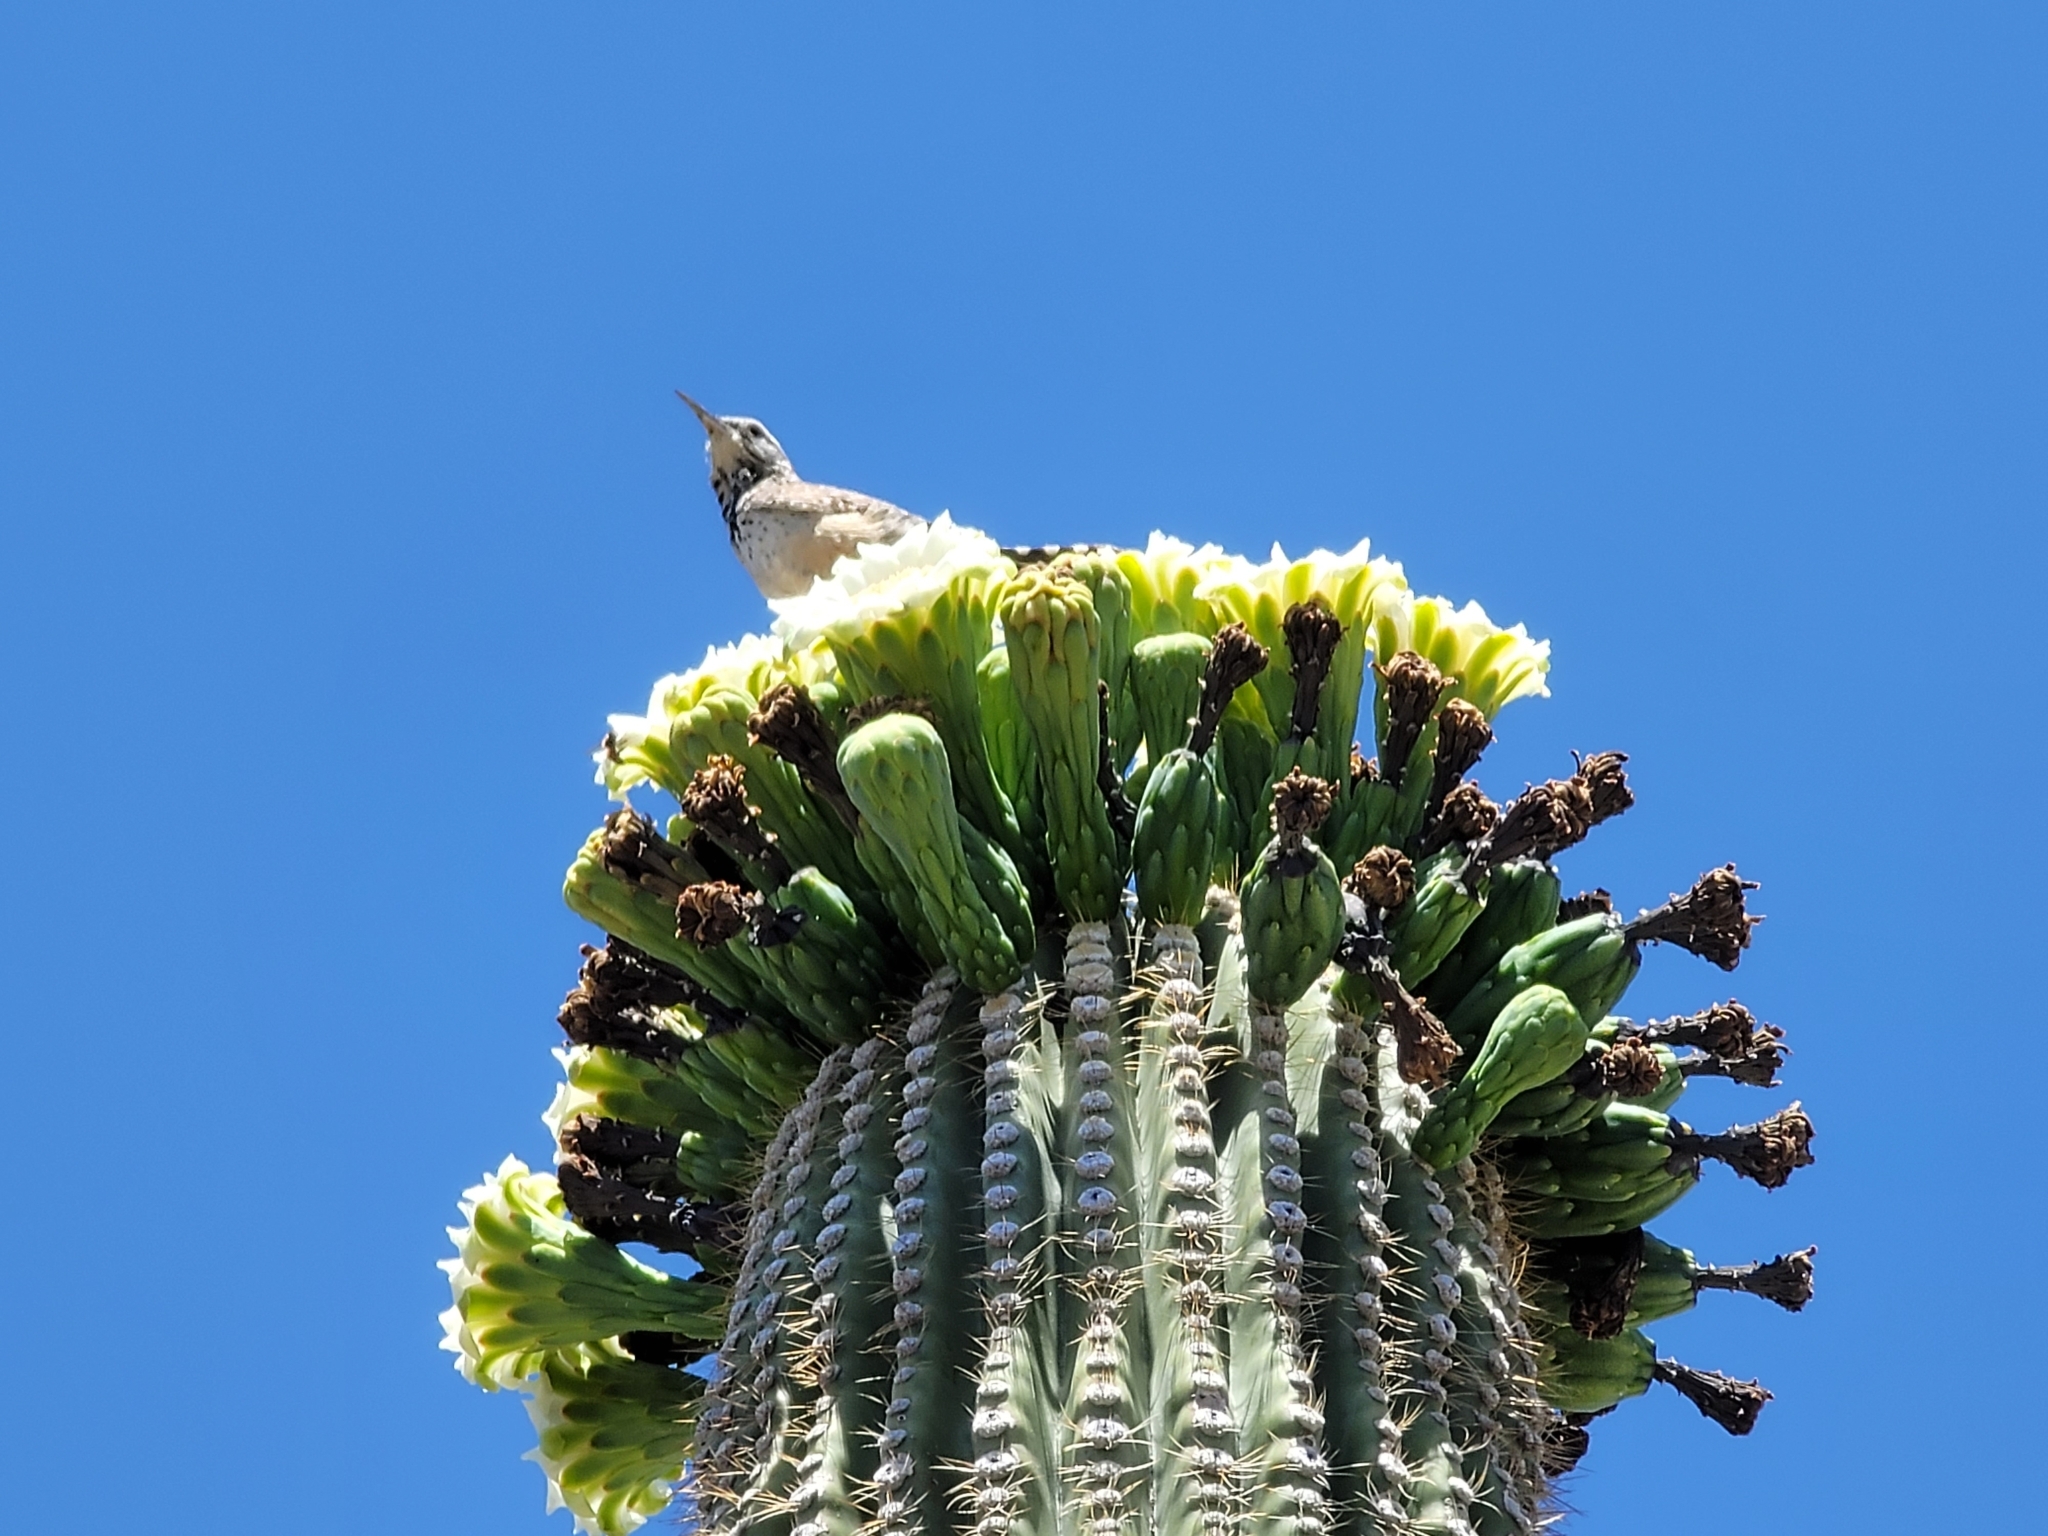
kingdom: Animalia
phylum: Chordata
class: Aves
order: Passeriformes
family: Troglodytidae
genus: Campylorhynchus
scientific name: Campylorhynchus brunneicapillus
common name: Cactus wren
